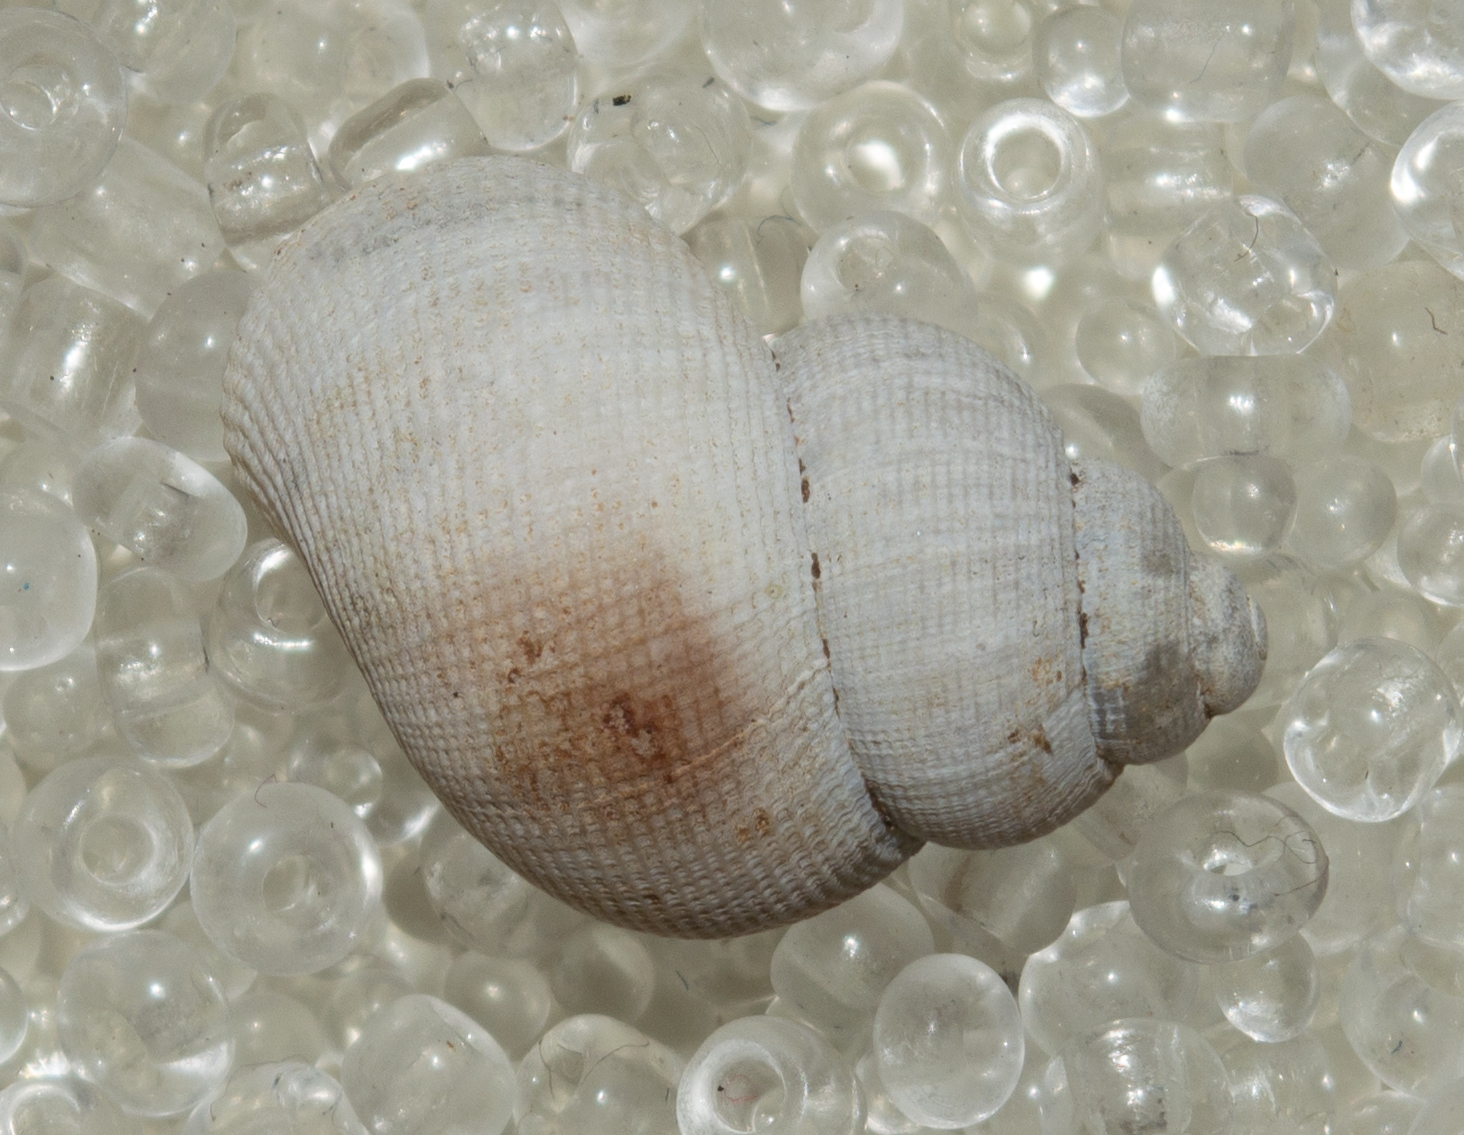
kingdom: Animalia
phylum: Mollusca
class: Gastropoda
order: Littorinimorpha
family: Pomatiidae
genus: Pomatias
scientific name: Pomatias elegans
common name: Red-mouthed snail
